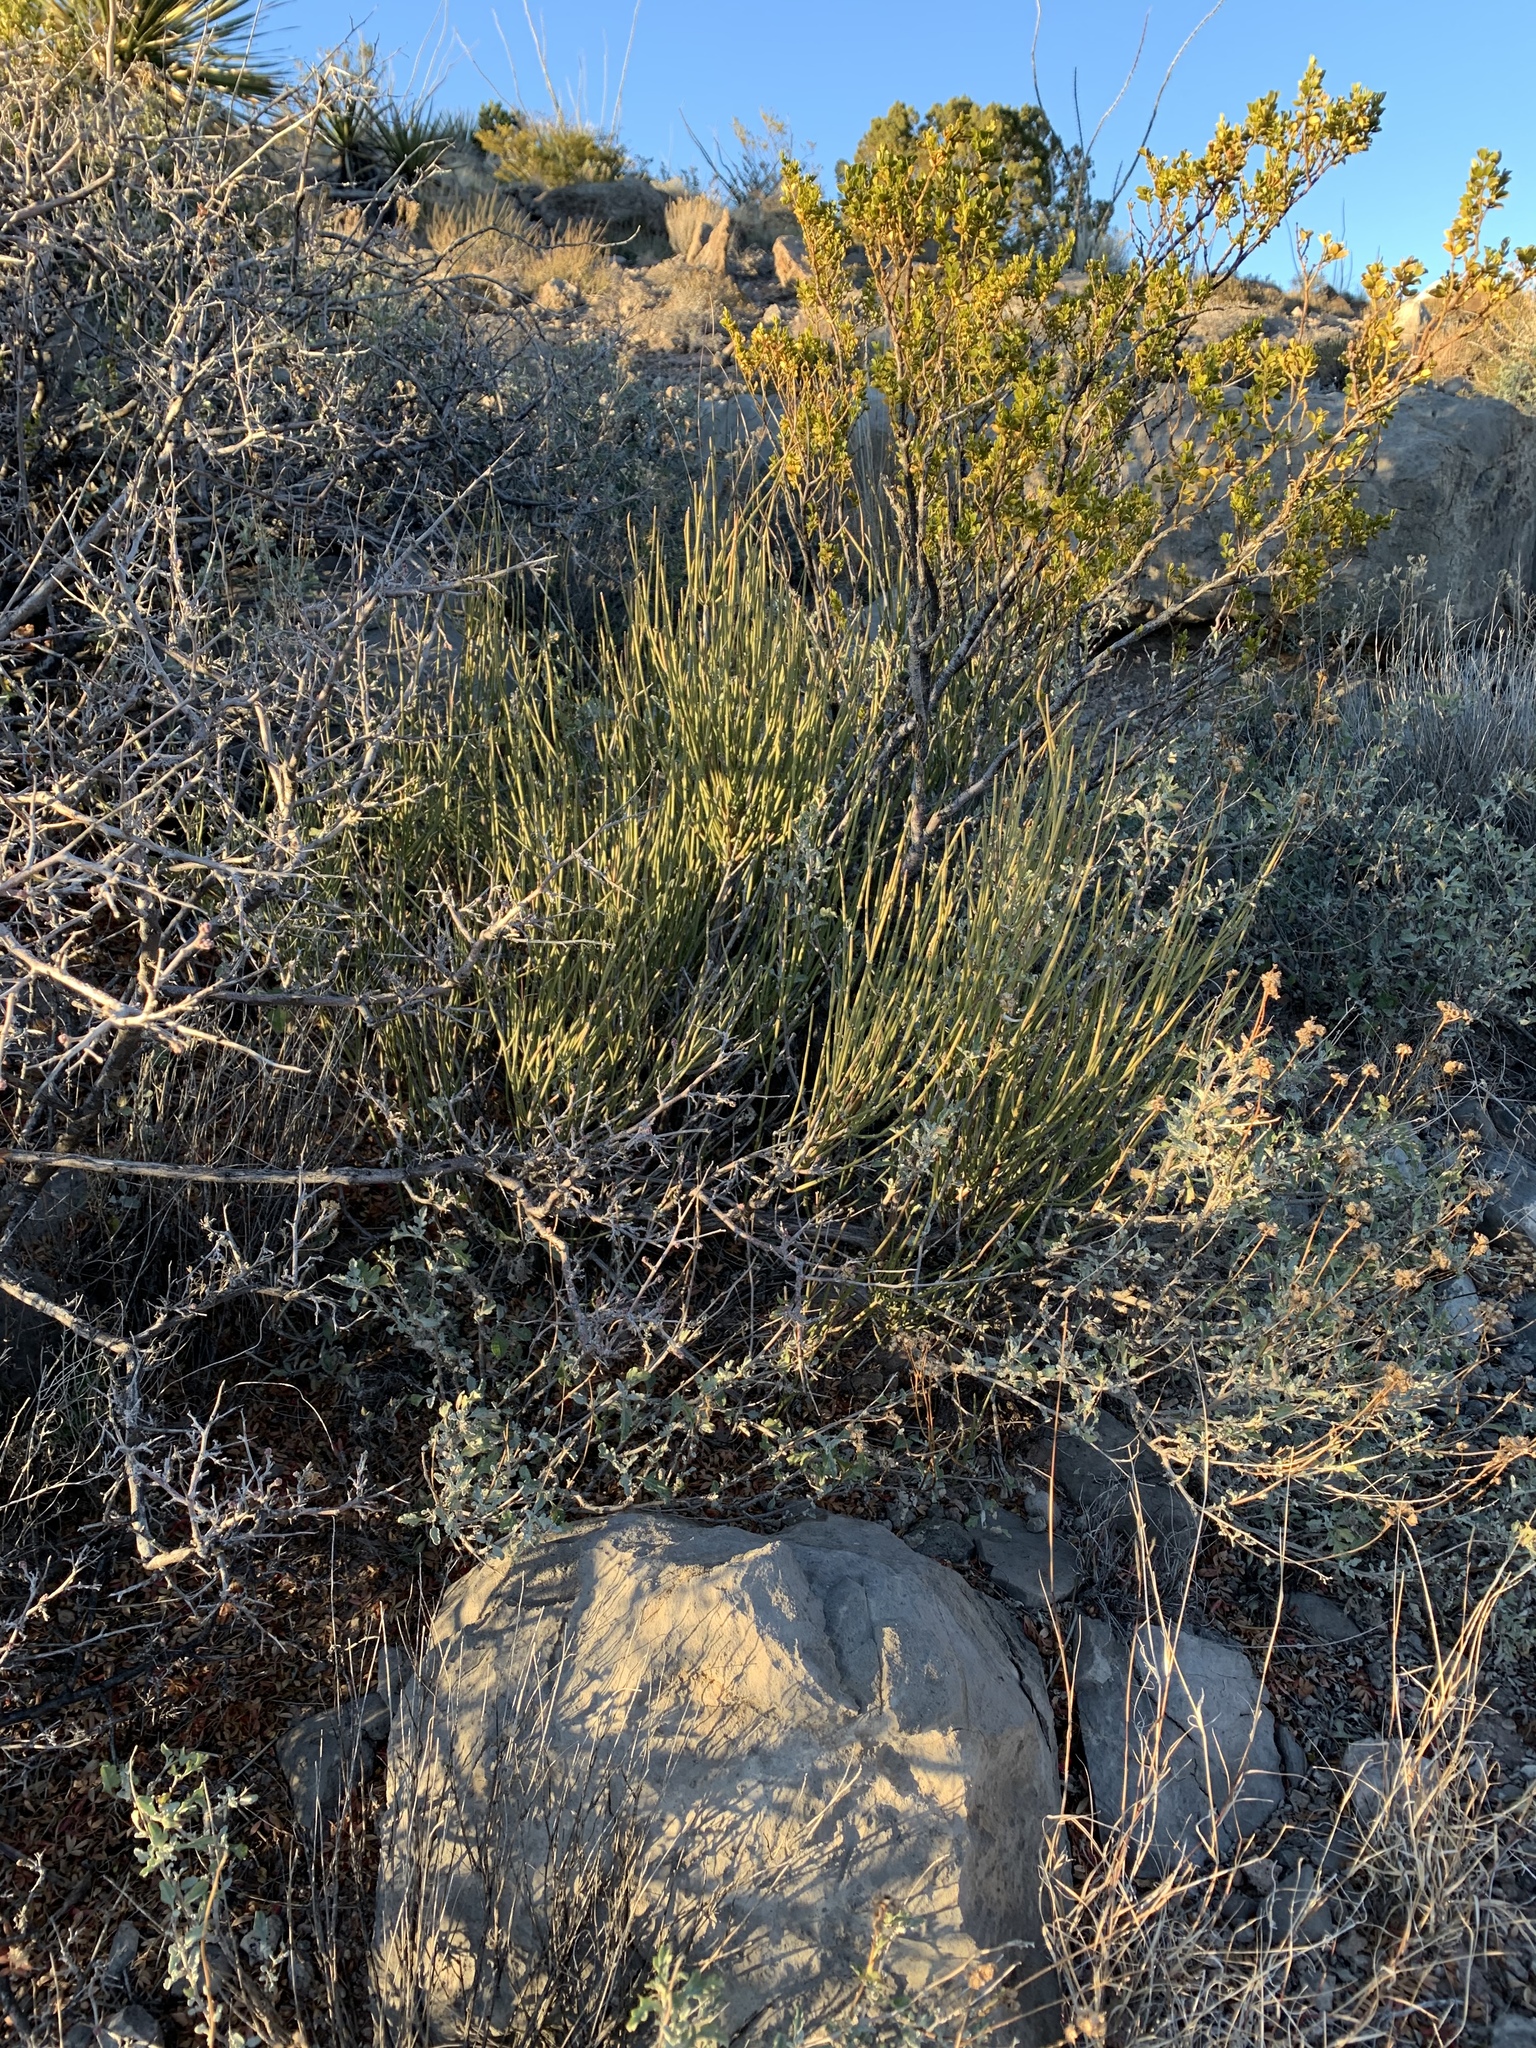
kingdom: Plantae
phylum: Tracheophyta
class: Gnetopsida
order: Ephedrales
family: Ephedraceae
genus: Ephedra
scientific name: Ephedra viridis
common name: Green ephedra
